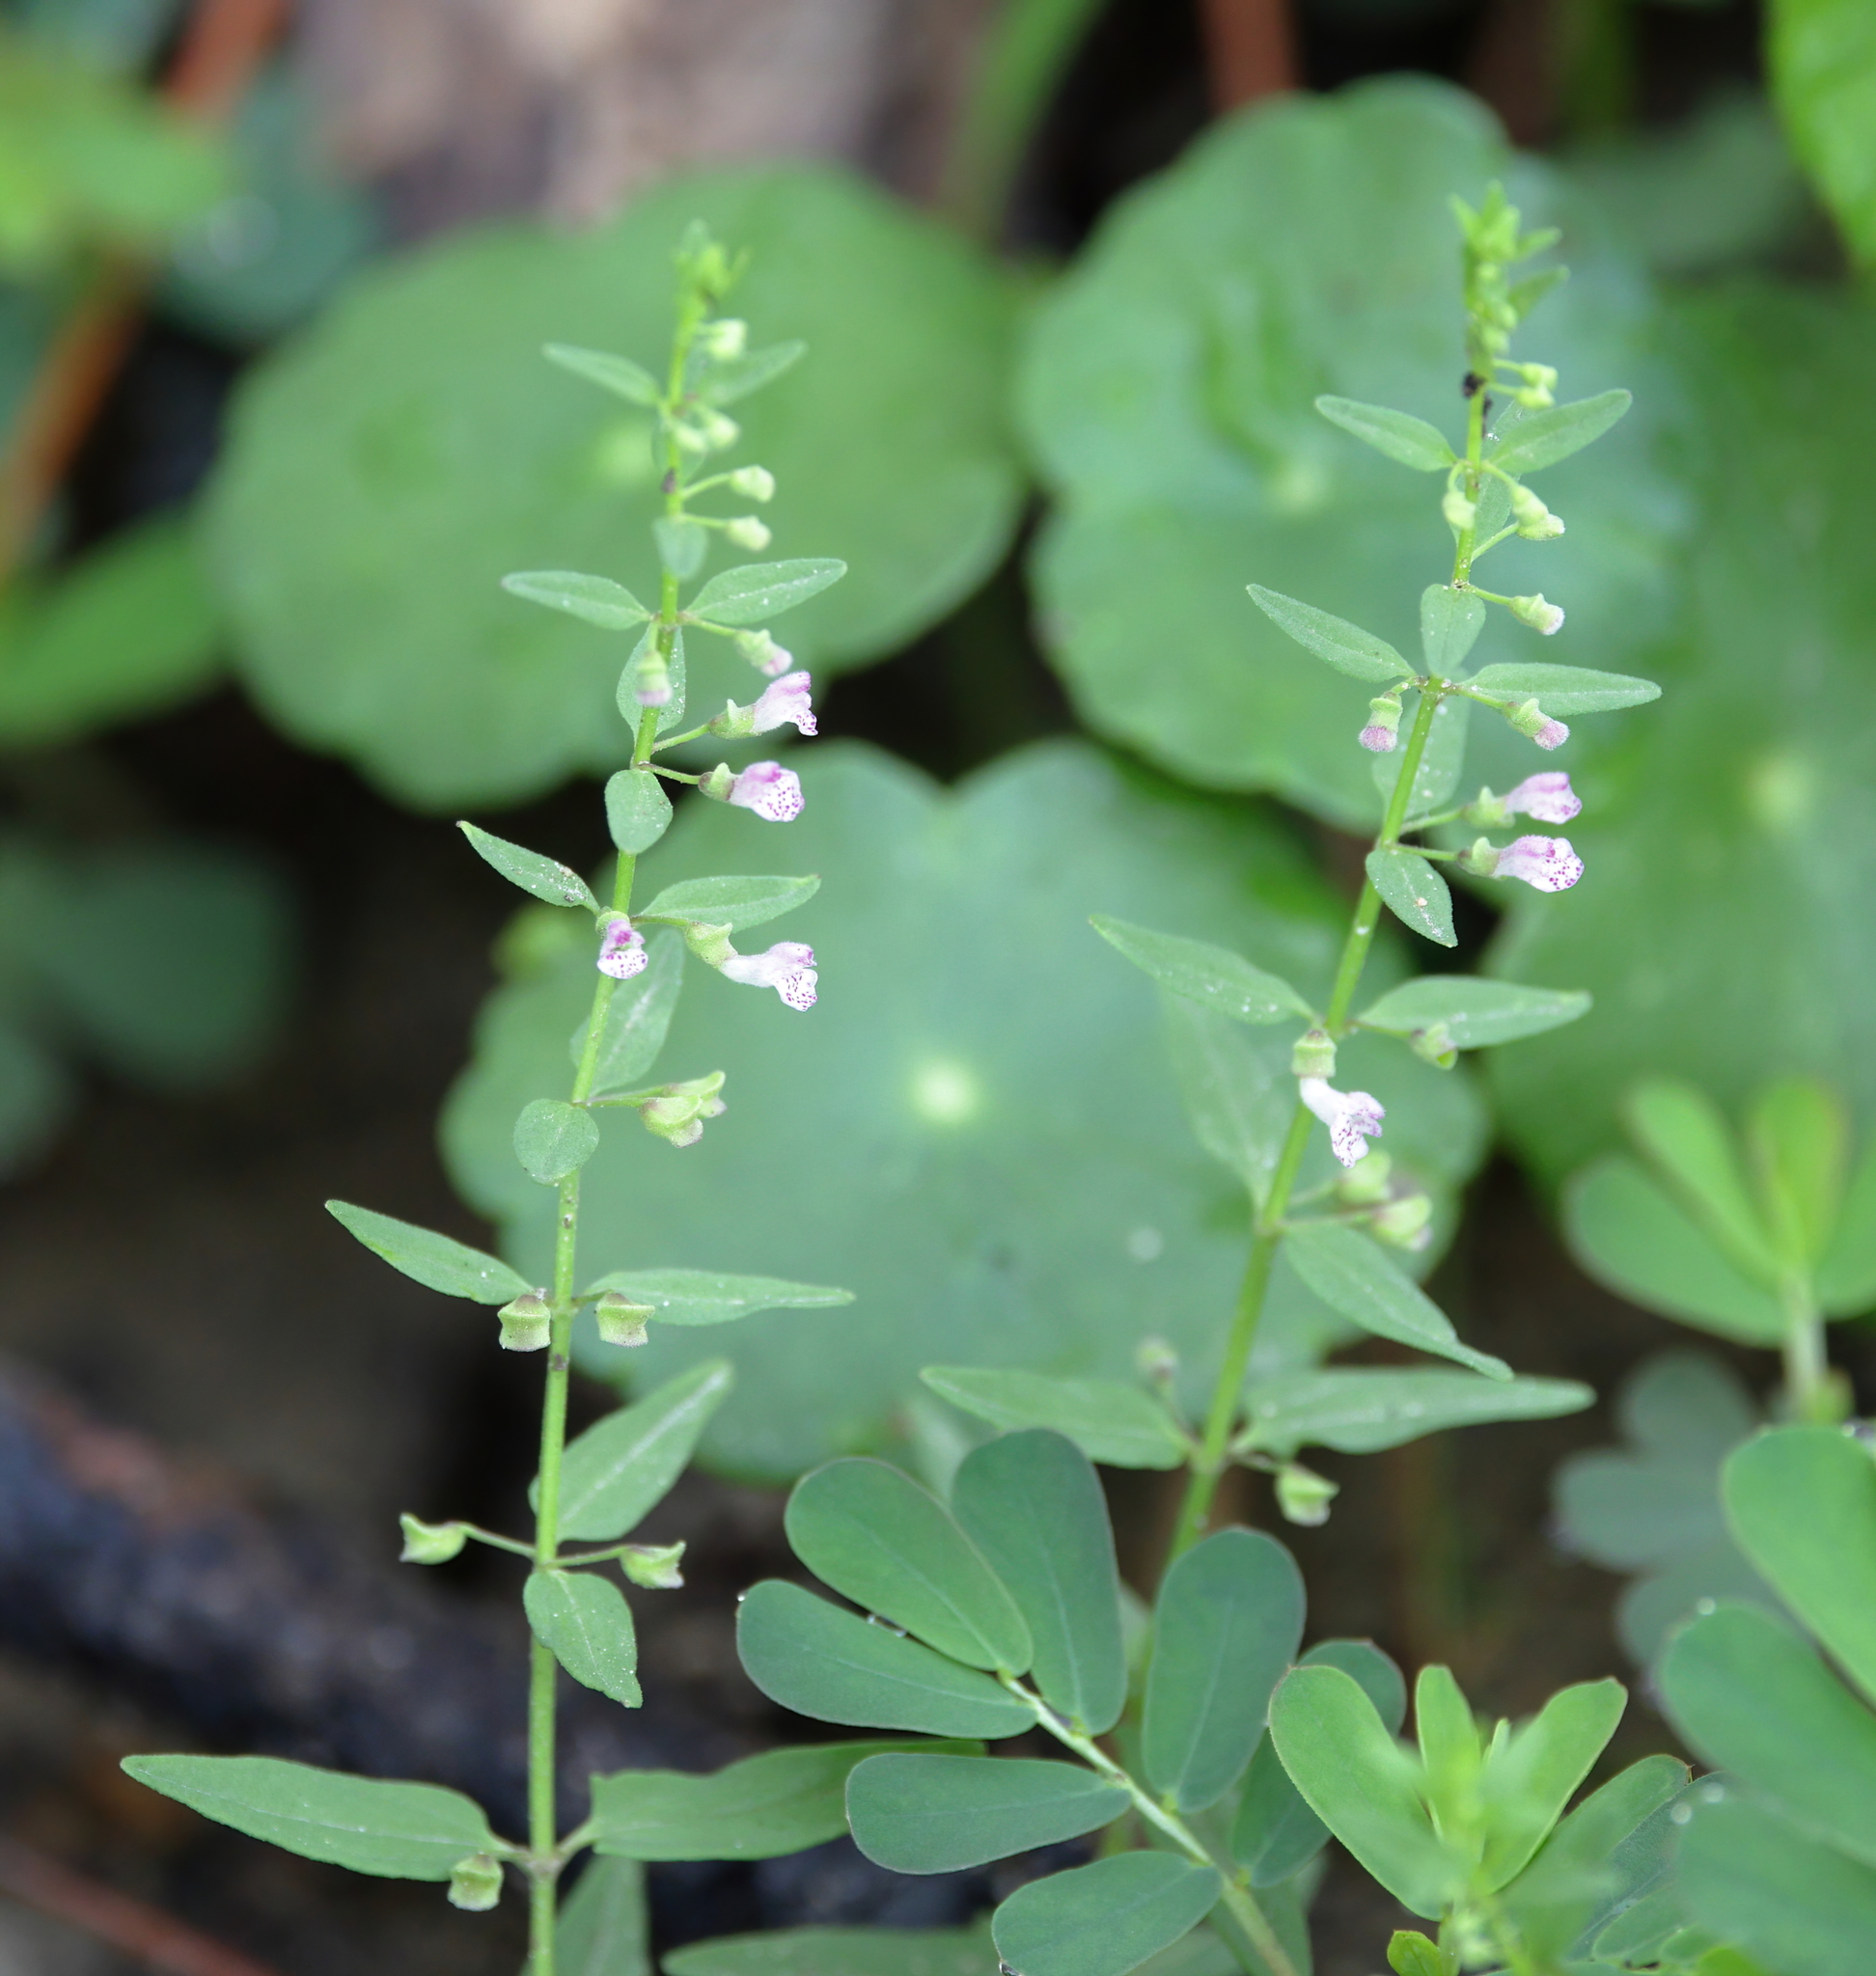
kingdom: Plantae
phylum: Tracheophyta
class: Magnoliopsida
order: Lamiales
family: Lamiaceae
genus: Scutellaria
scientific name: Scutellaria racemosa
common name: South american skullcap
